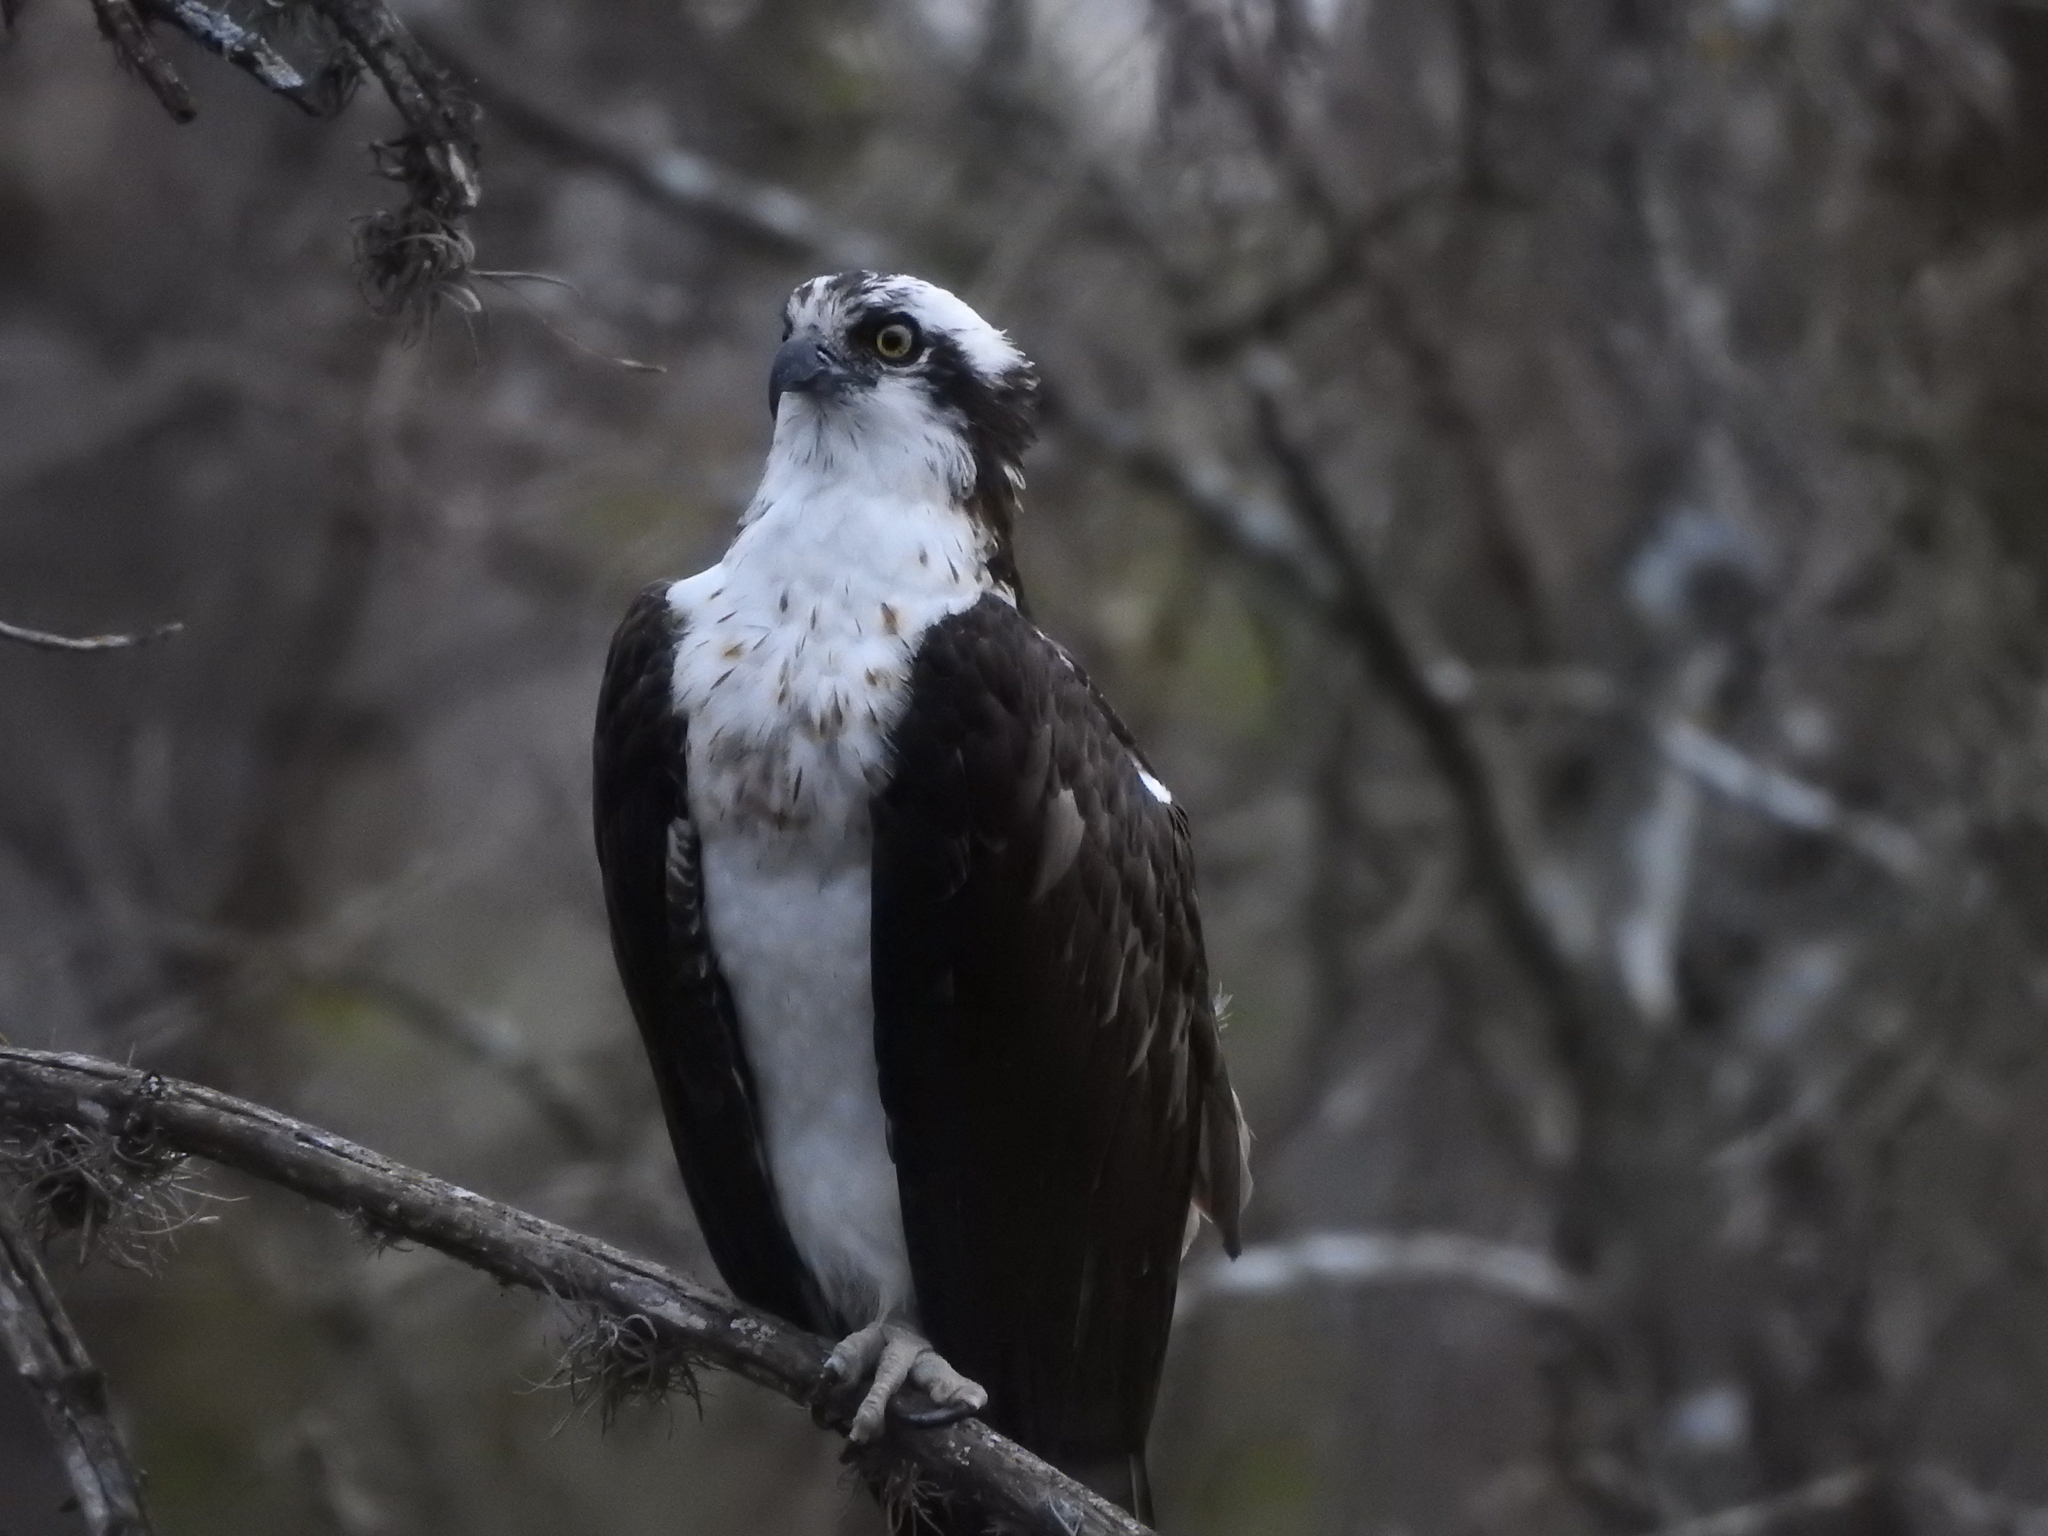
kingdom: Animalia
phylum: Chordata
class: Aves
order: Accipitriformes
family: Pandionidae
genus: Pandion
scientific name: Pandion haliaetus
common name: Osprey
